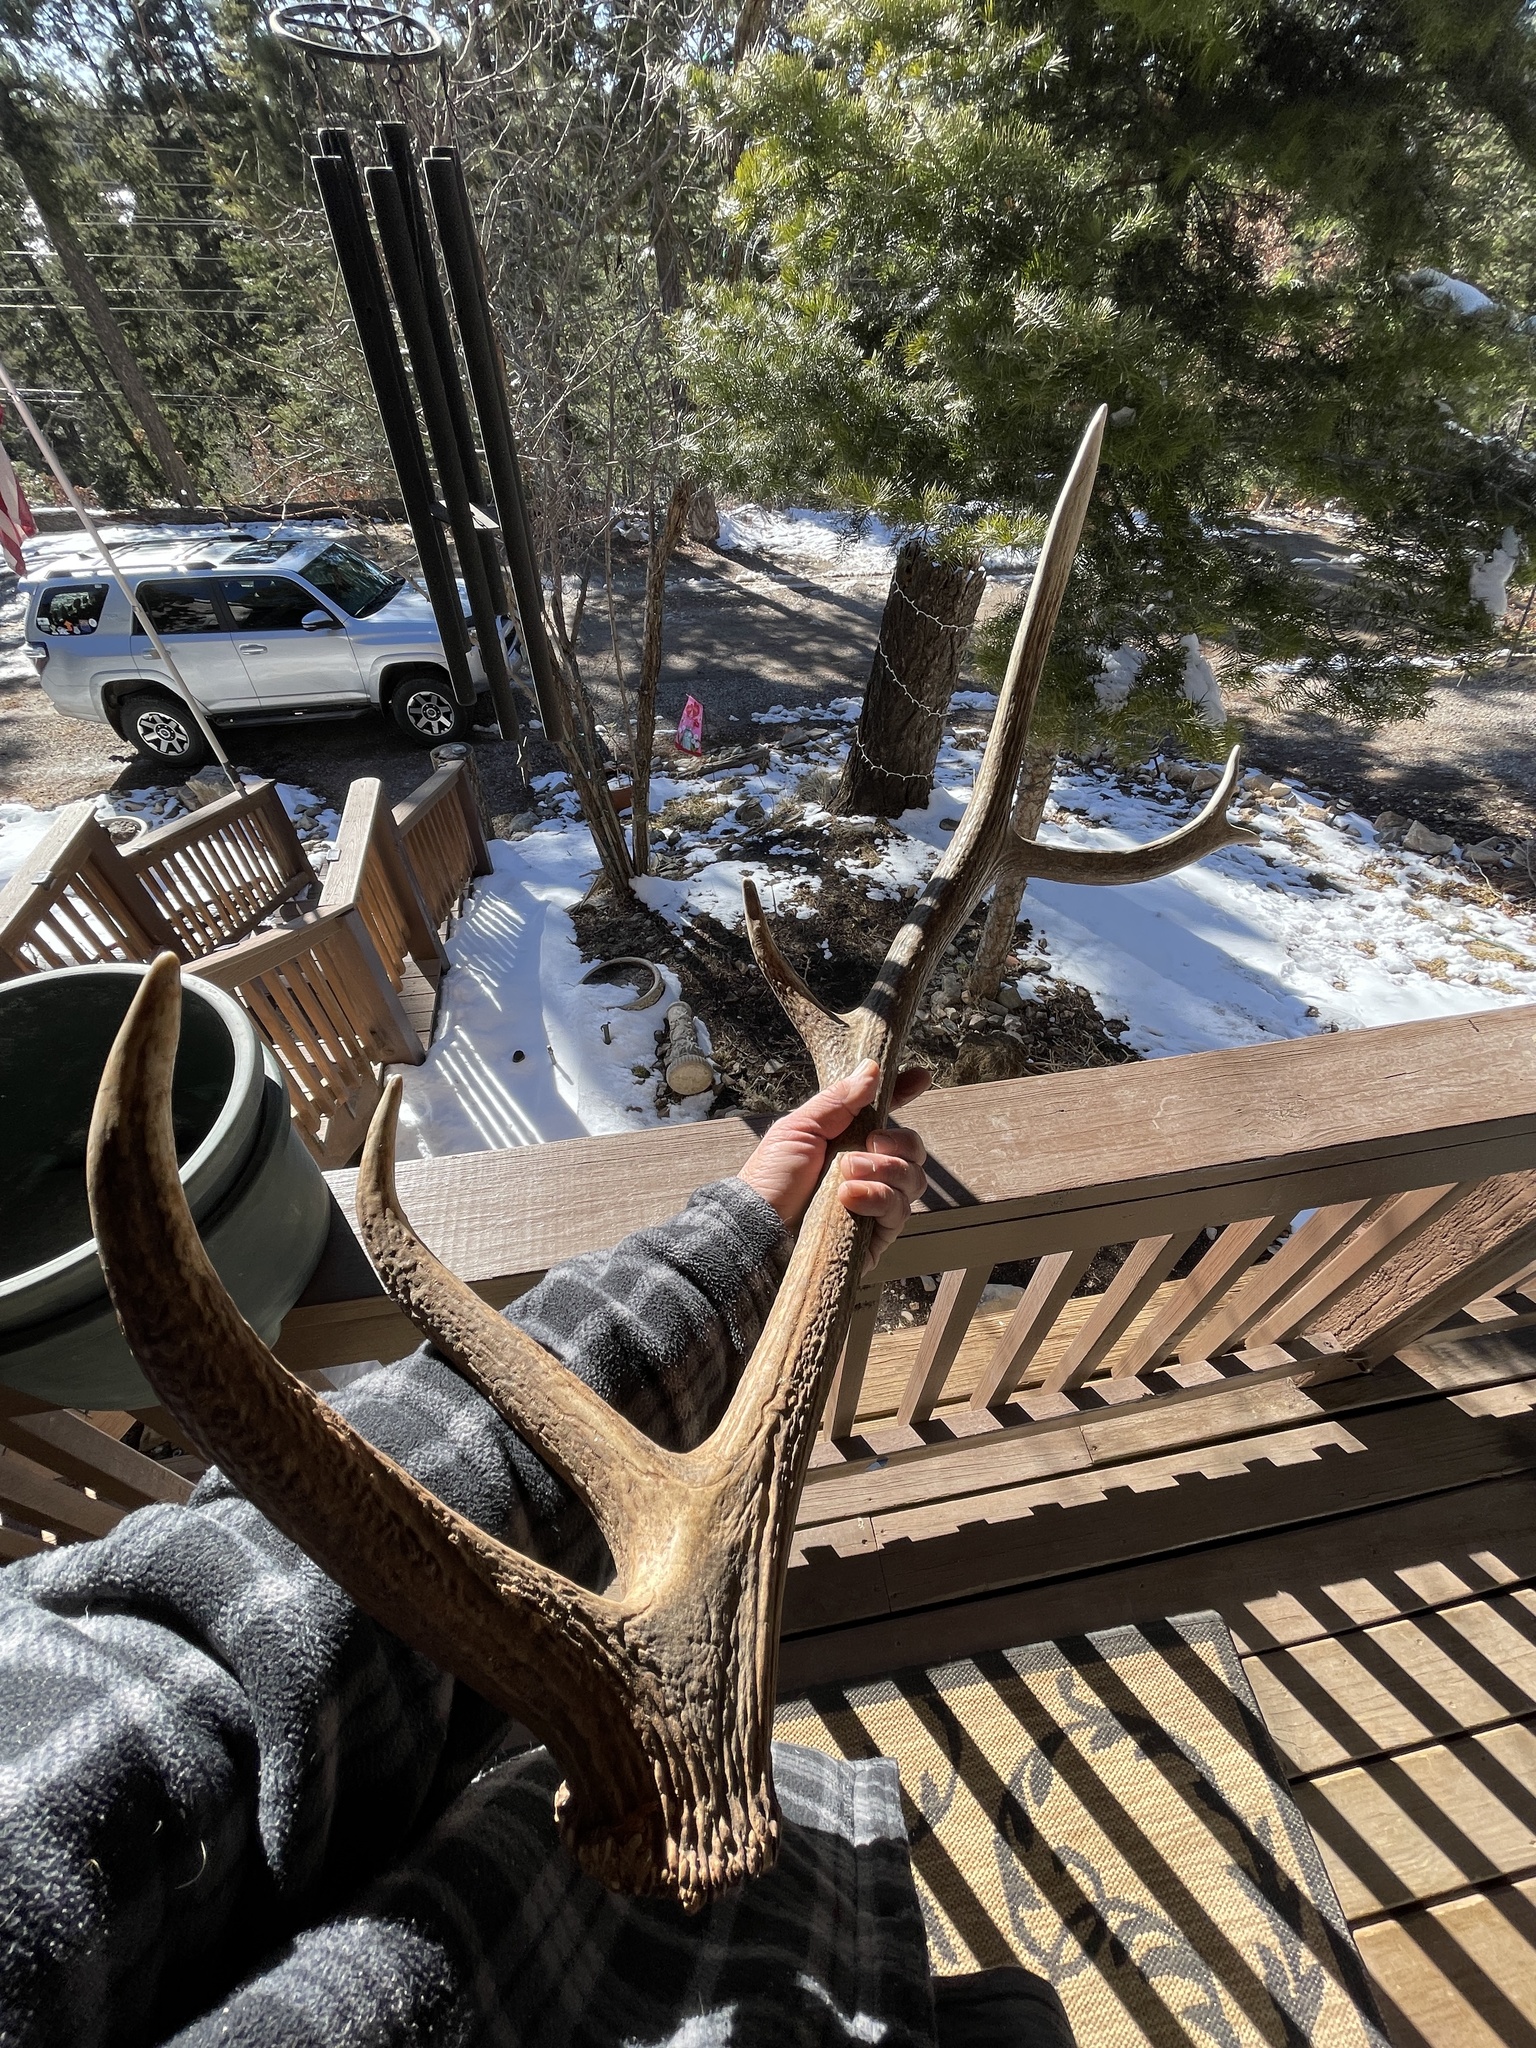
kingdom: Animalia
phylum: Chordata
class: Mammalia
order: Artiodactyla
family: Cervidae
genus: Cervus
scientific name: Cervus elaphus
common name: Red deer
